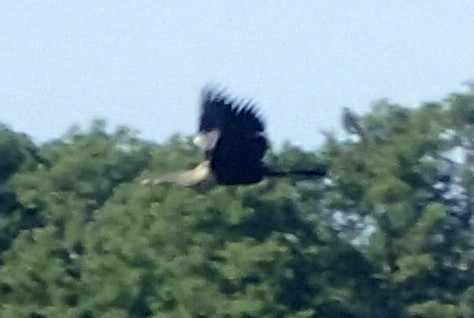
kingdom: Animalia
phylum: Chordata
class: Aves
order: Suliformes
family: Anhingidae
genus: Anhinga
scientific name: Anhinga anhinga
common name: Anhinga
